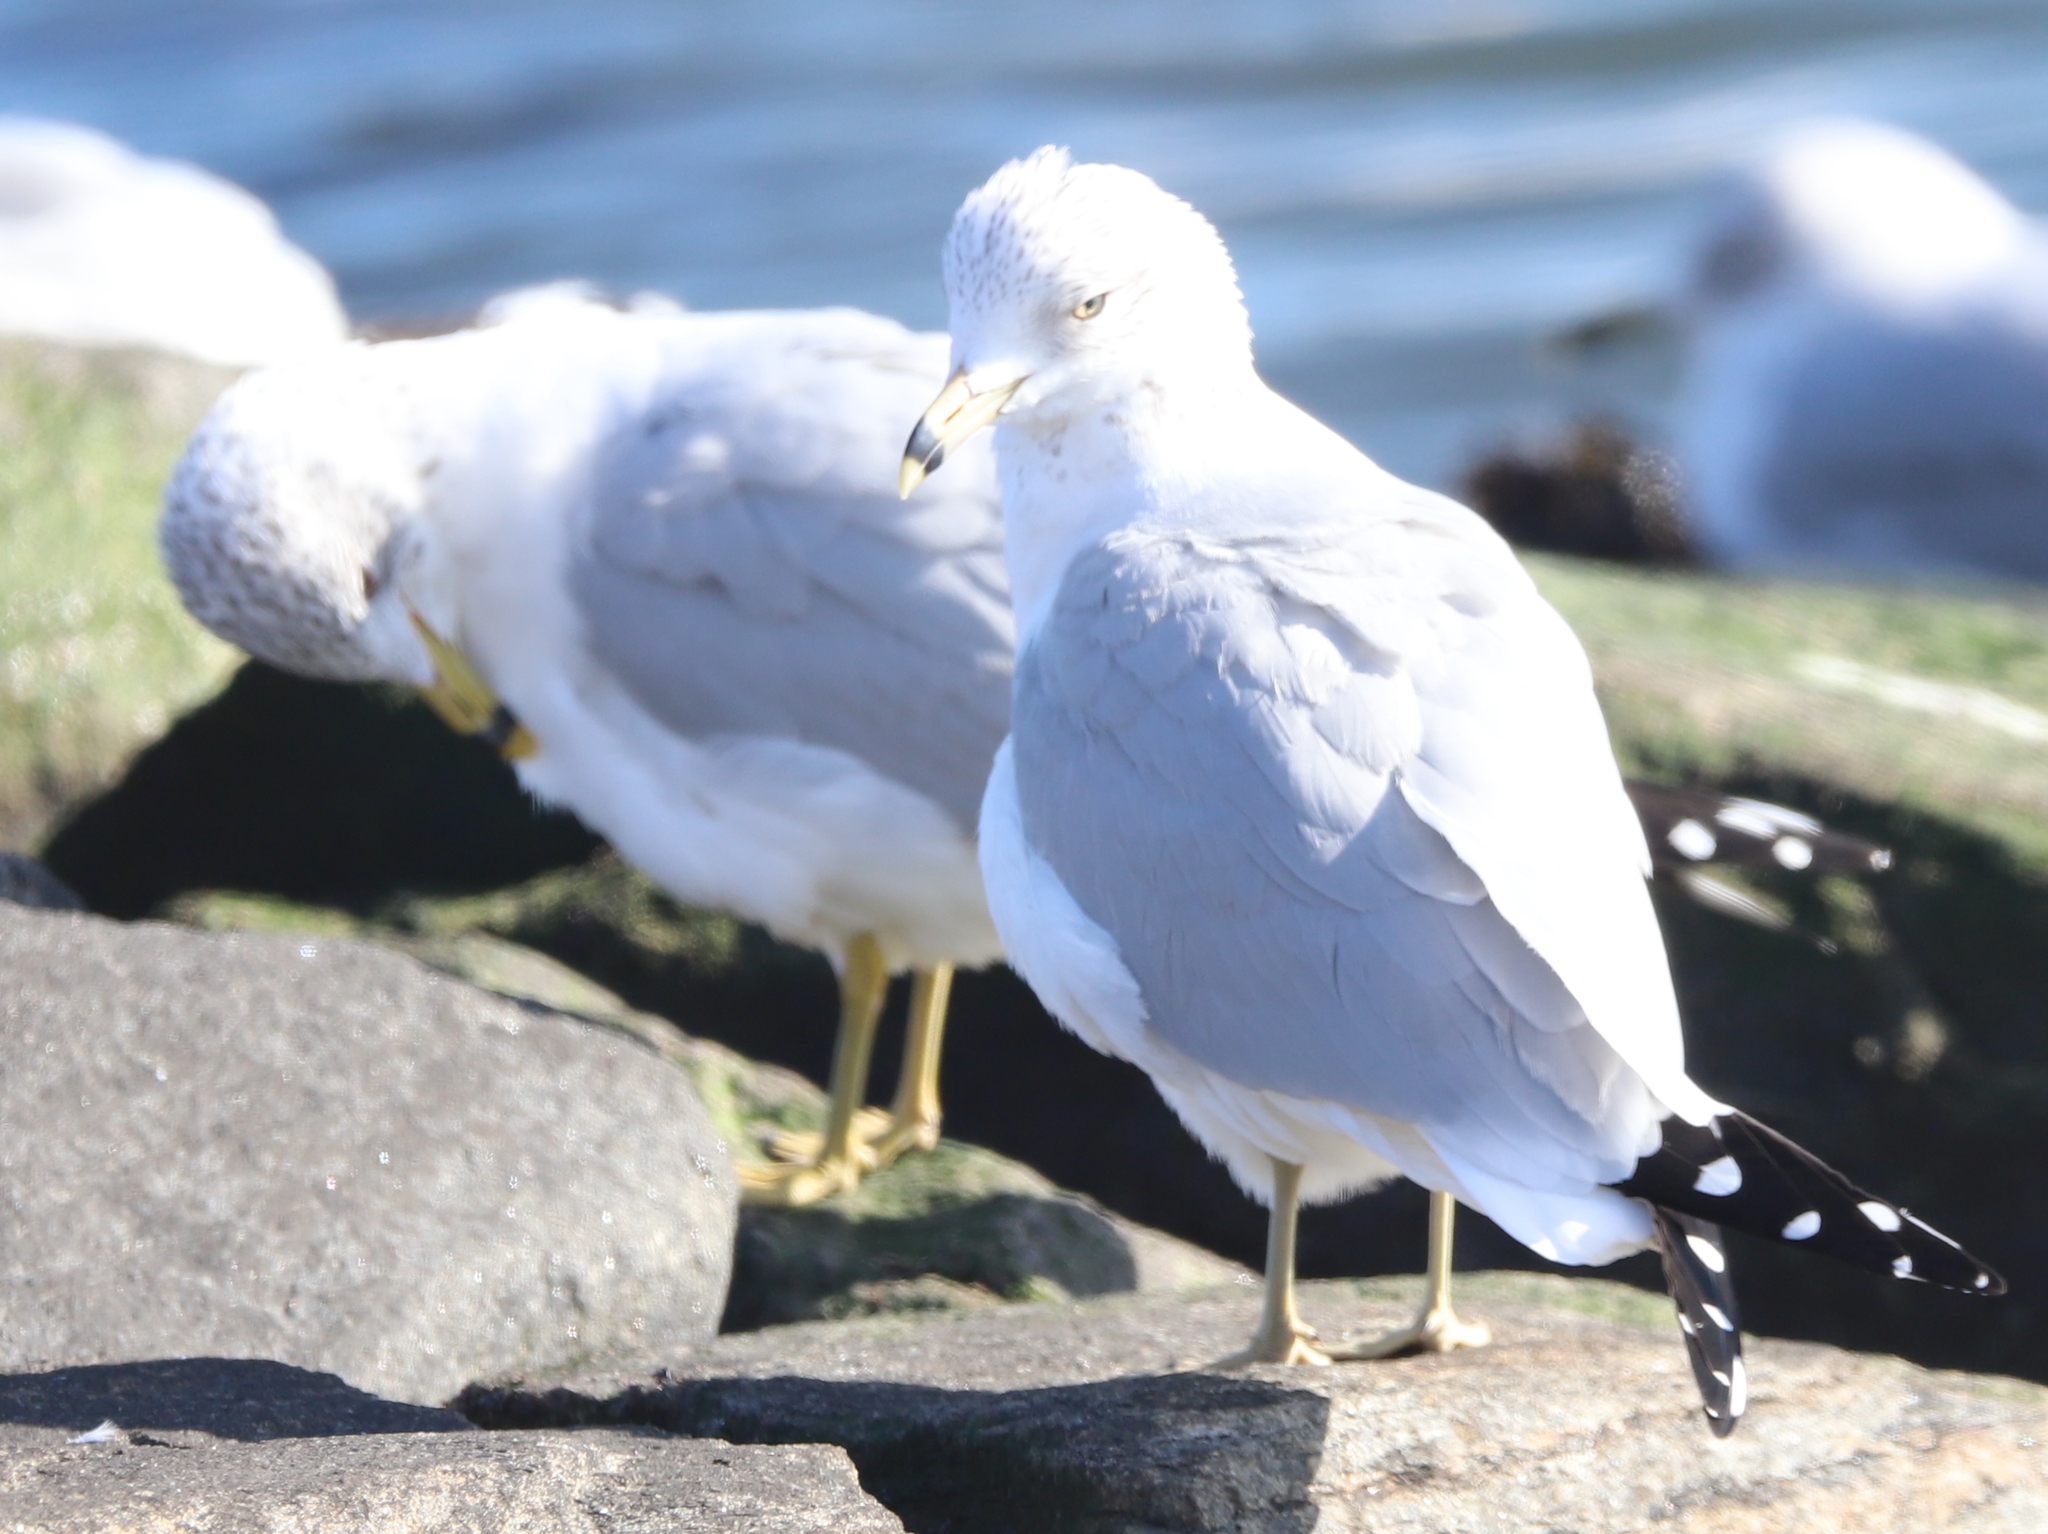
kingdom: Animalia
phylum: Chordata
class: Aves
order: Charadriiformes
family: Laridae
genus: Larus
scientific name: Larus delawarensis
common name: Ring-billed gull
